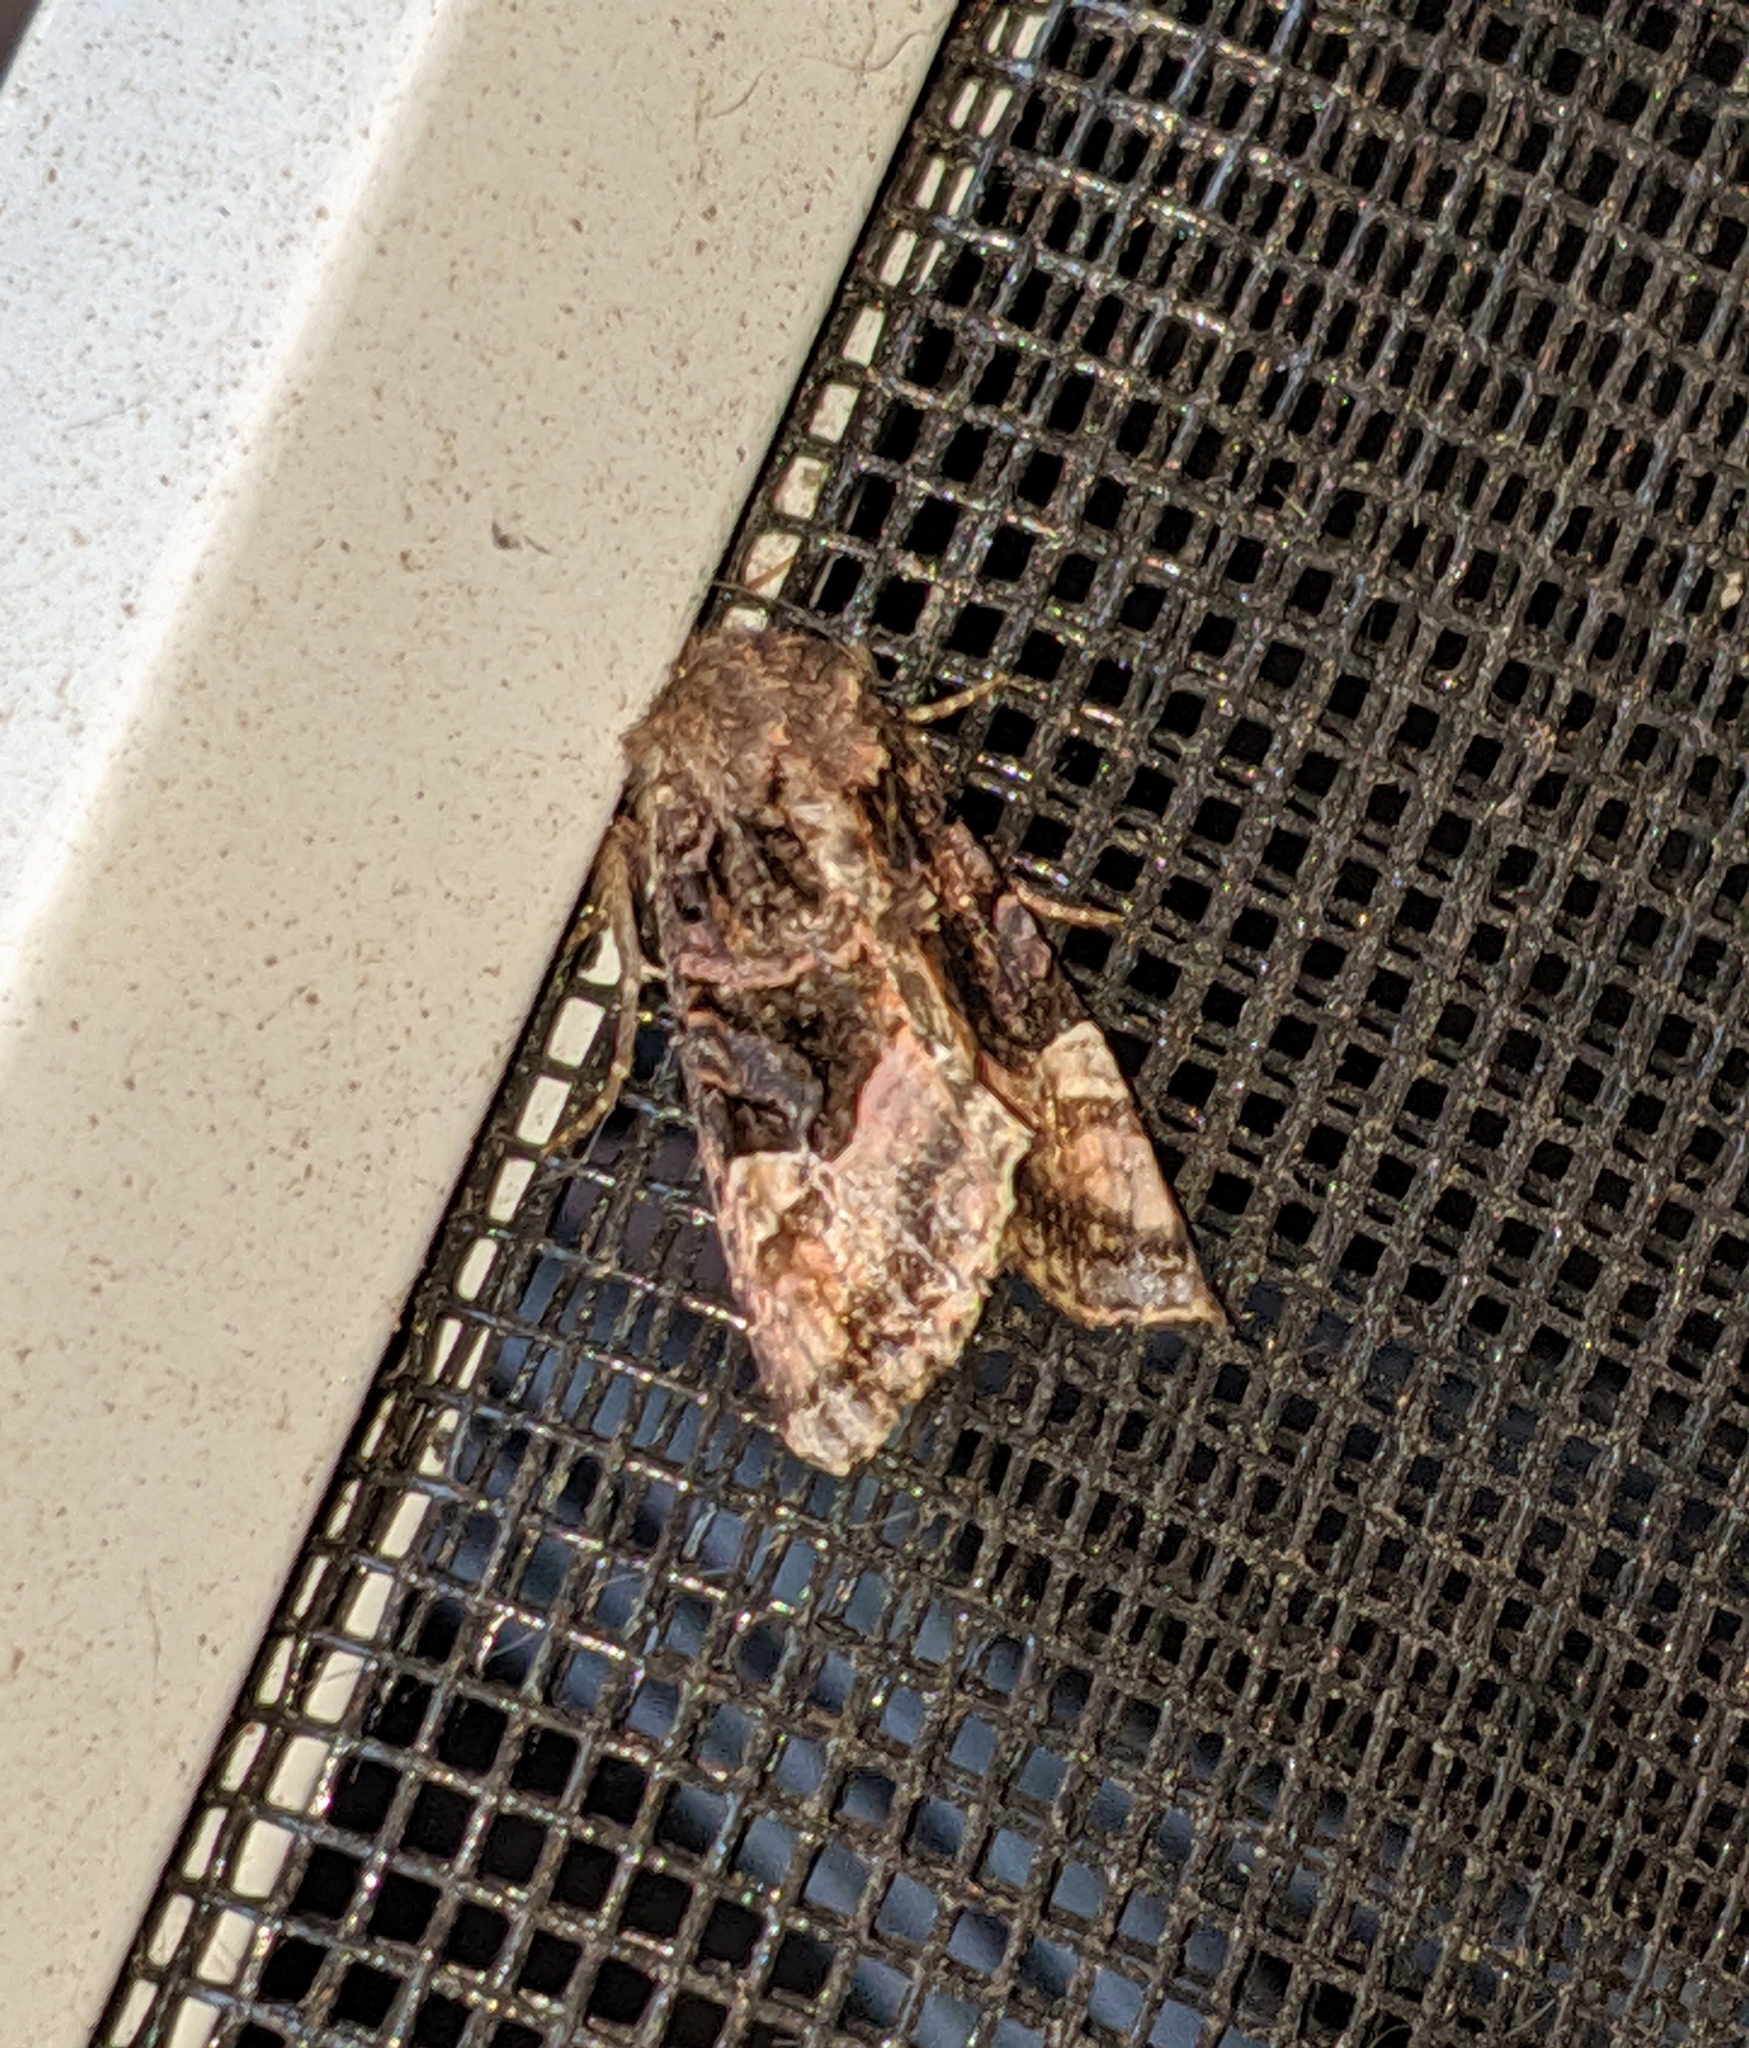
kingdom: Animalia
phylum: Arthropoda
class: Insecta
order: Lepidoptera
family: Noctuidae
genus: Euplexia
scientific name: Euplexia benesimilis
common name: American angle shades
